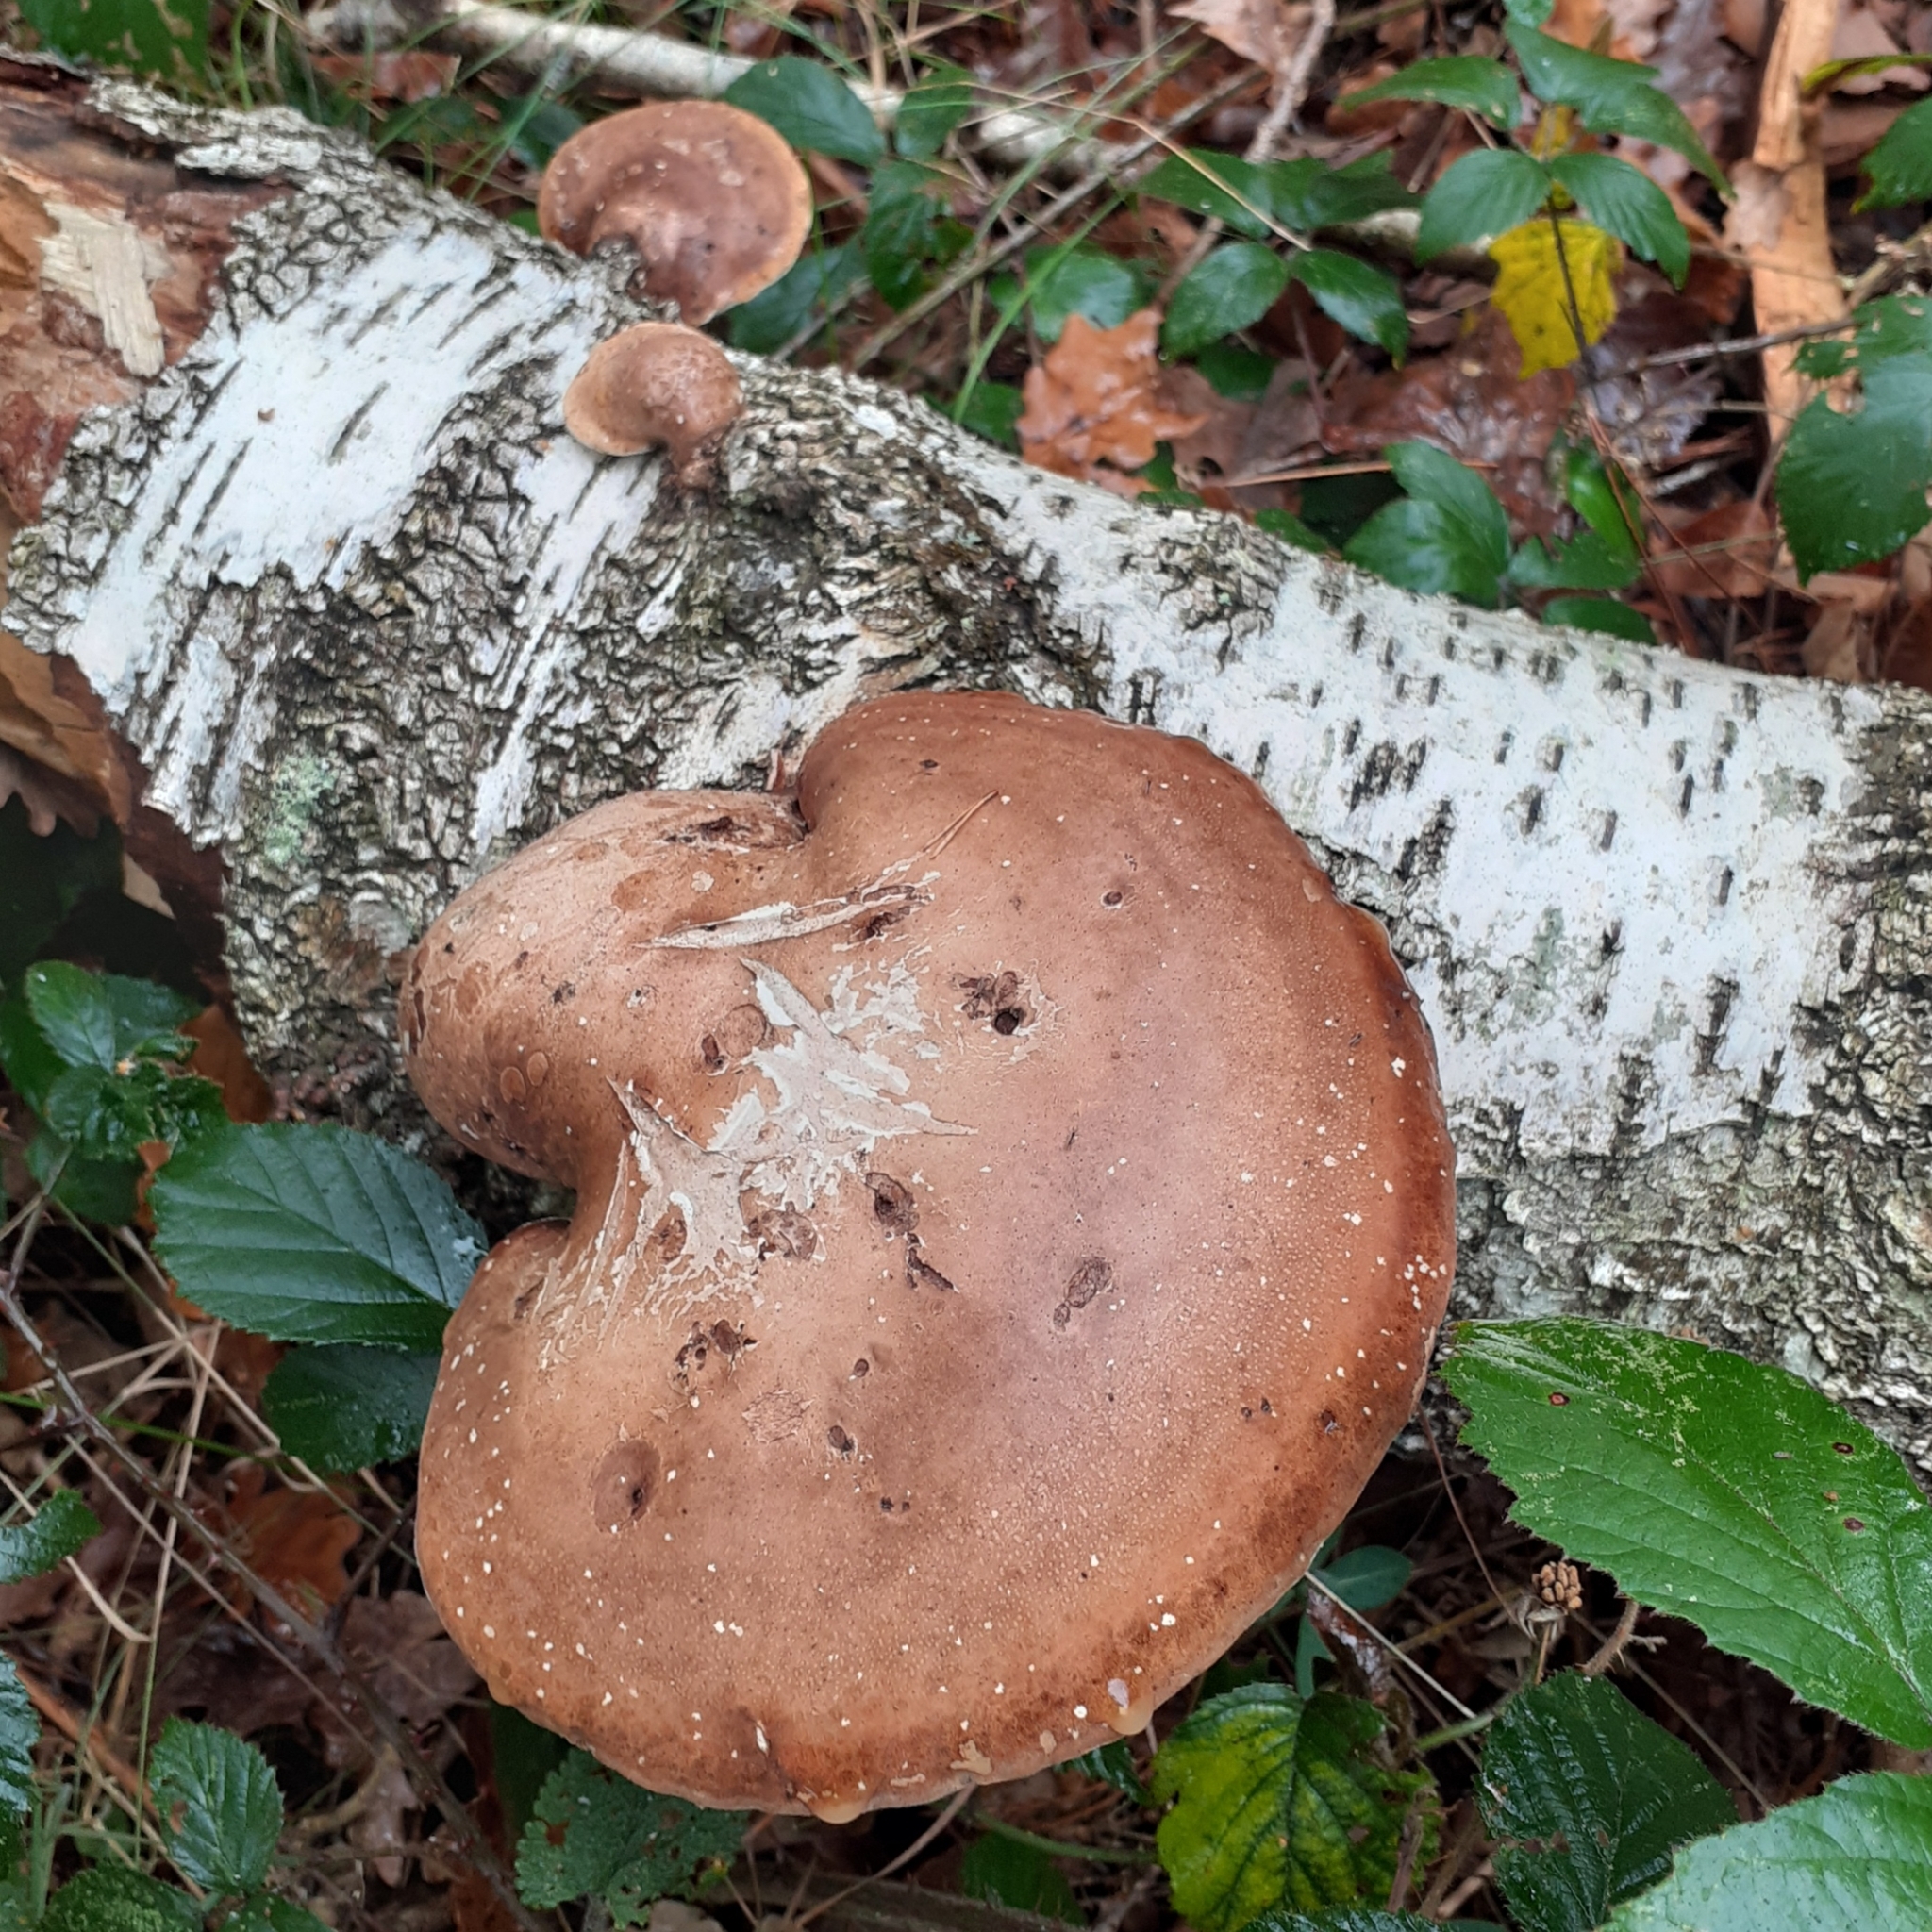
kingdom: Fungi
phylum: Basidiomycota
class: Agaricomycetes
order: Polyporales
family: Fomitopsidaceae
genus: Fomitopsis
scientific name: Fomitopsis betulina
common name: Birch polypore
